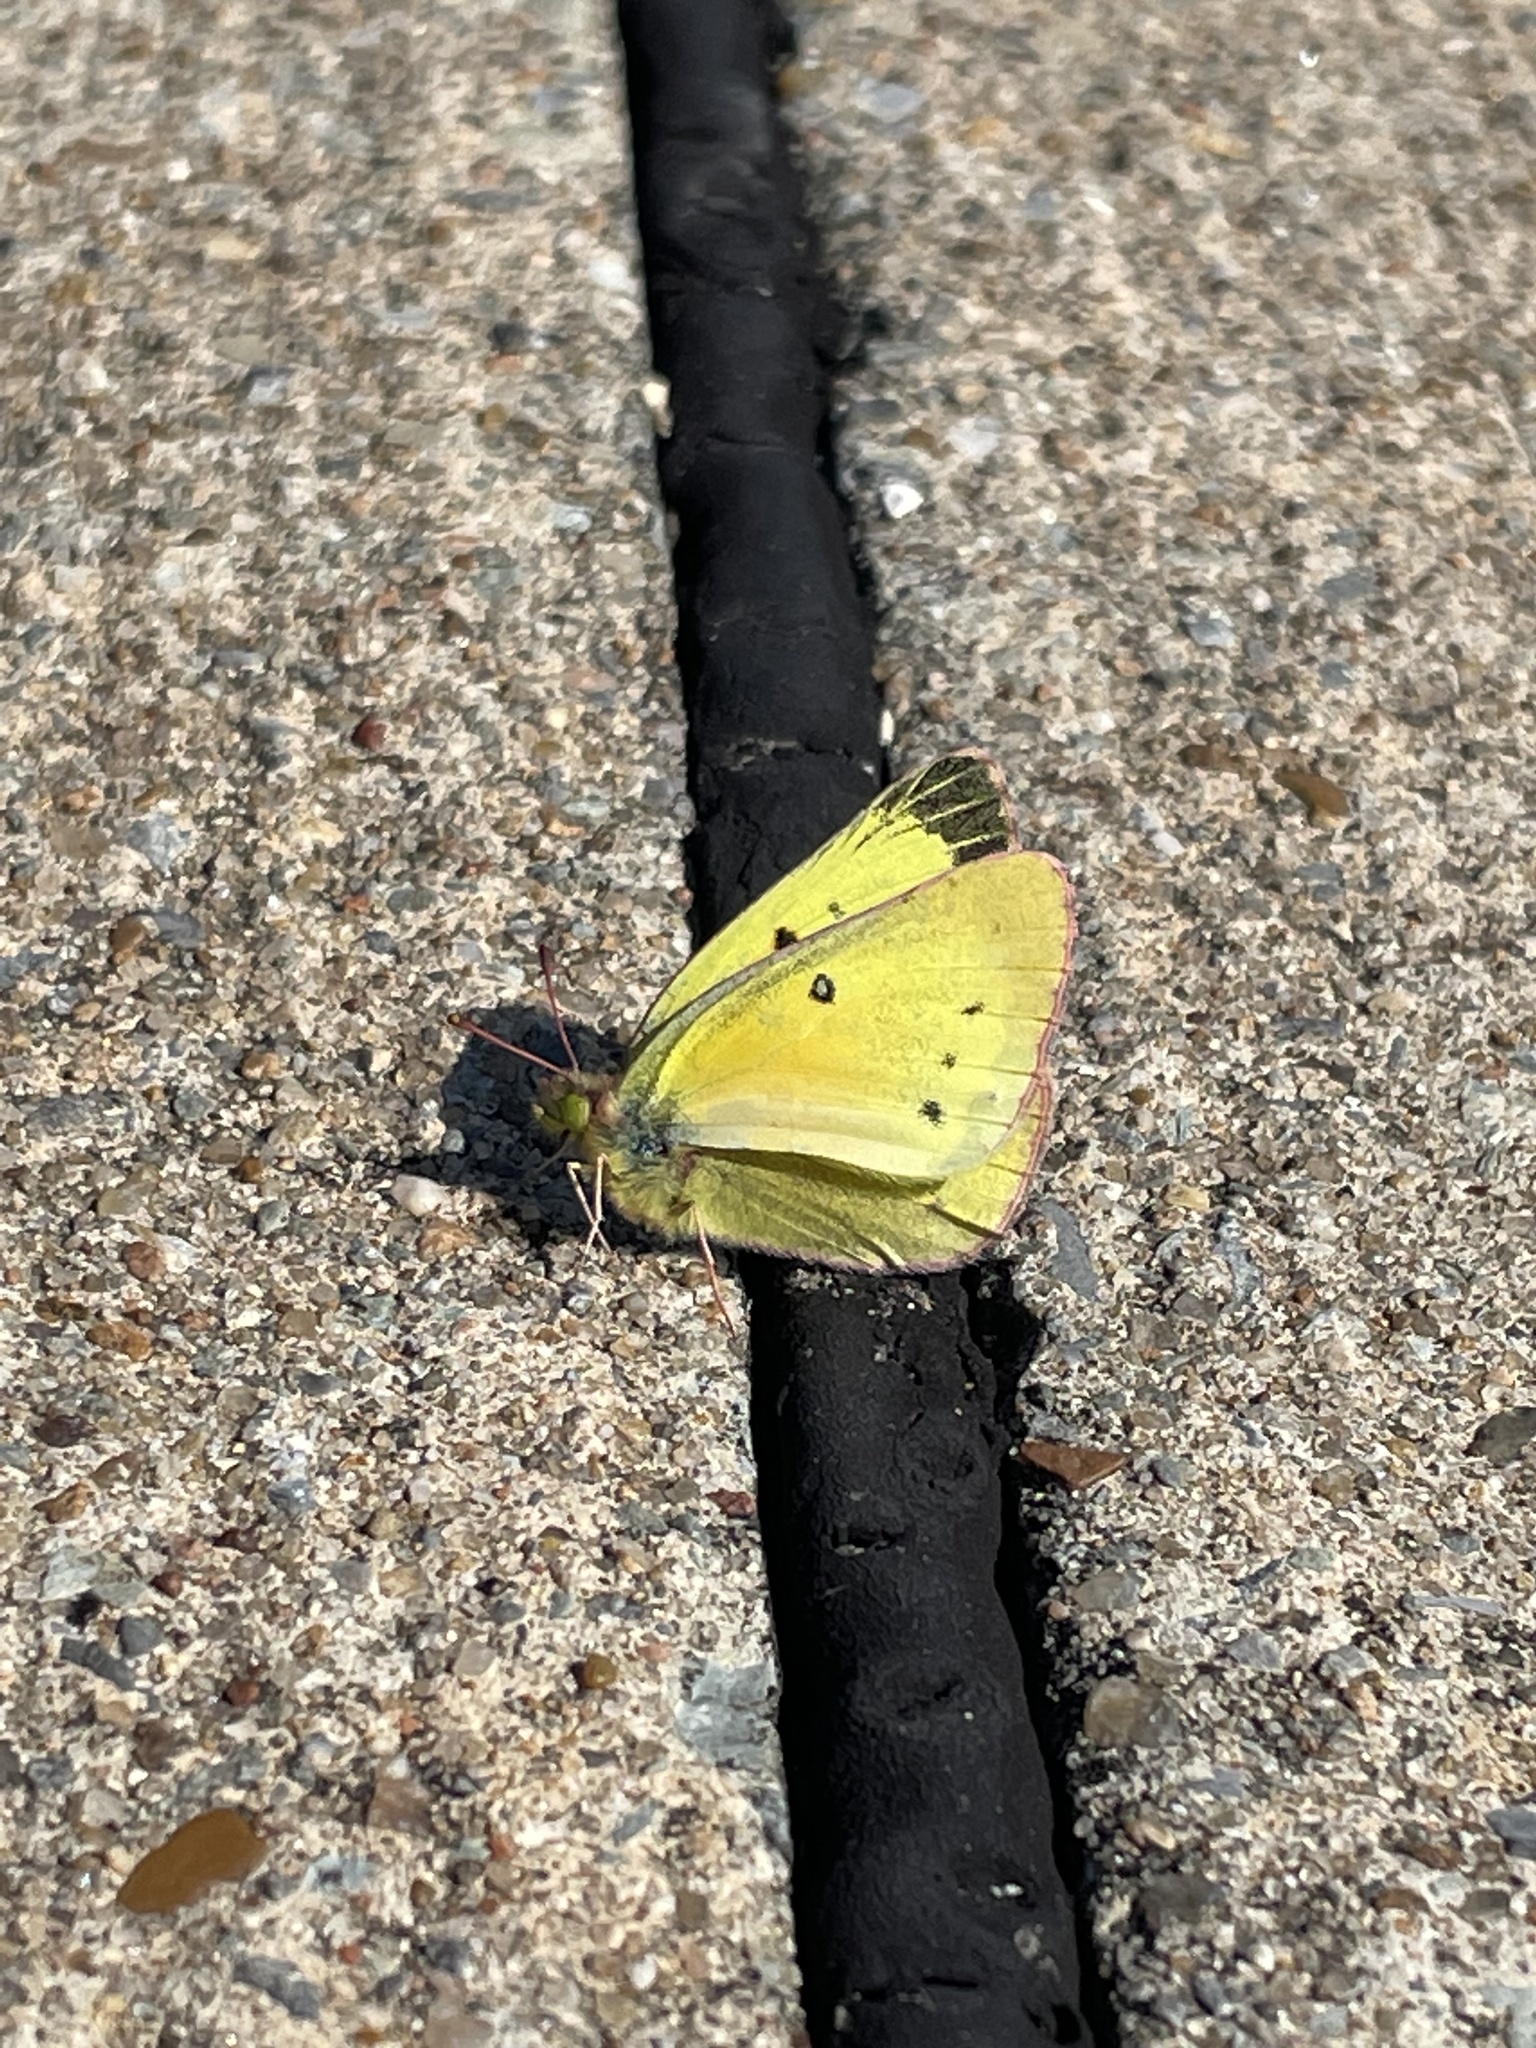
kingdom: Animalia
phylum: Arthropoda
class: Insecta
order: Lepidoptera
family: Pieridae
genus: Colias
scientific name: Colias eurytheme
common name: Alfalfa butterfly
